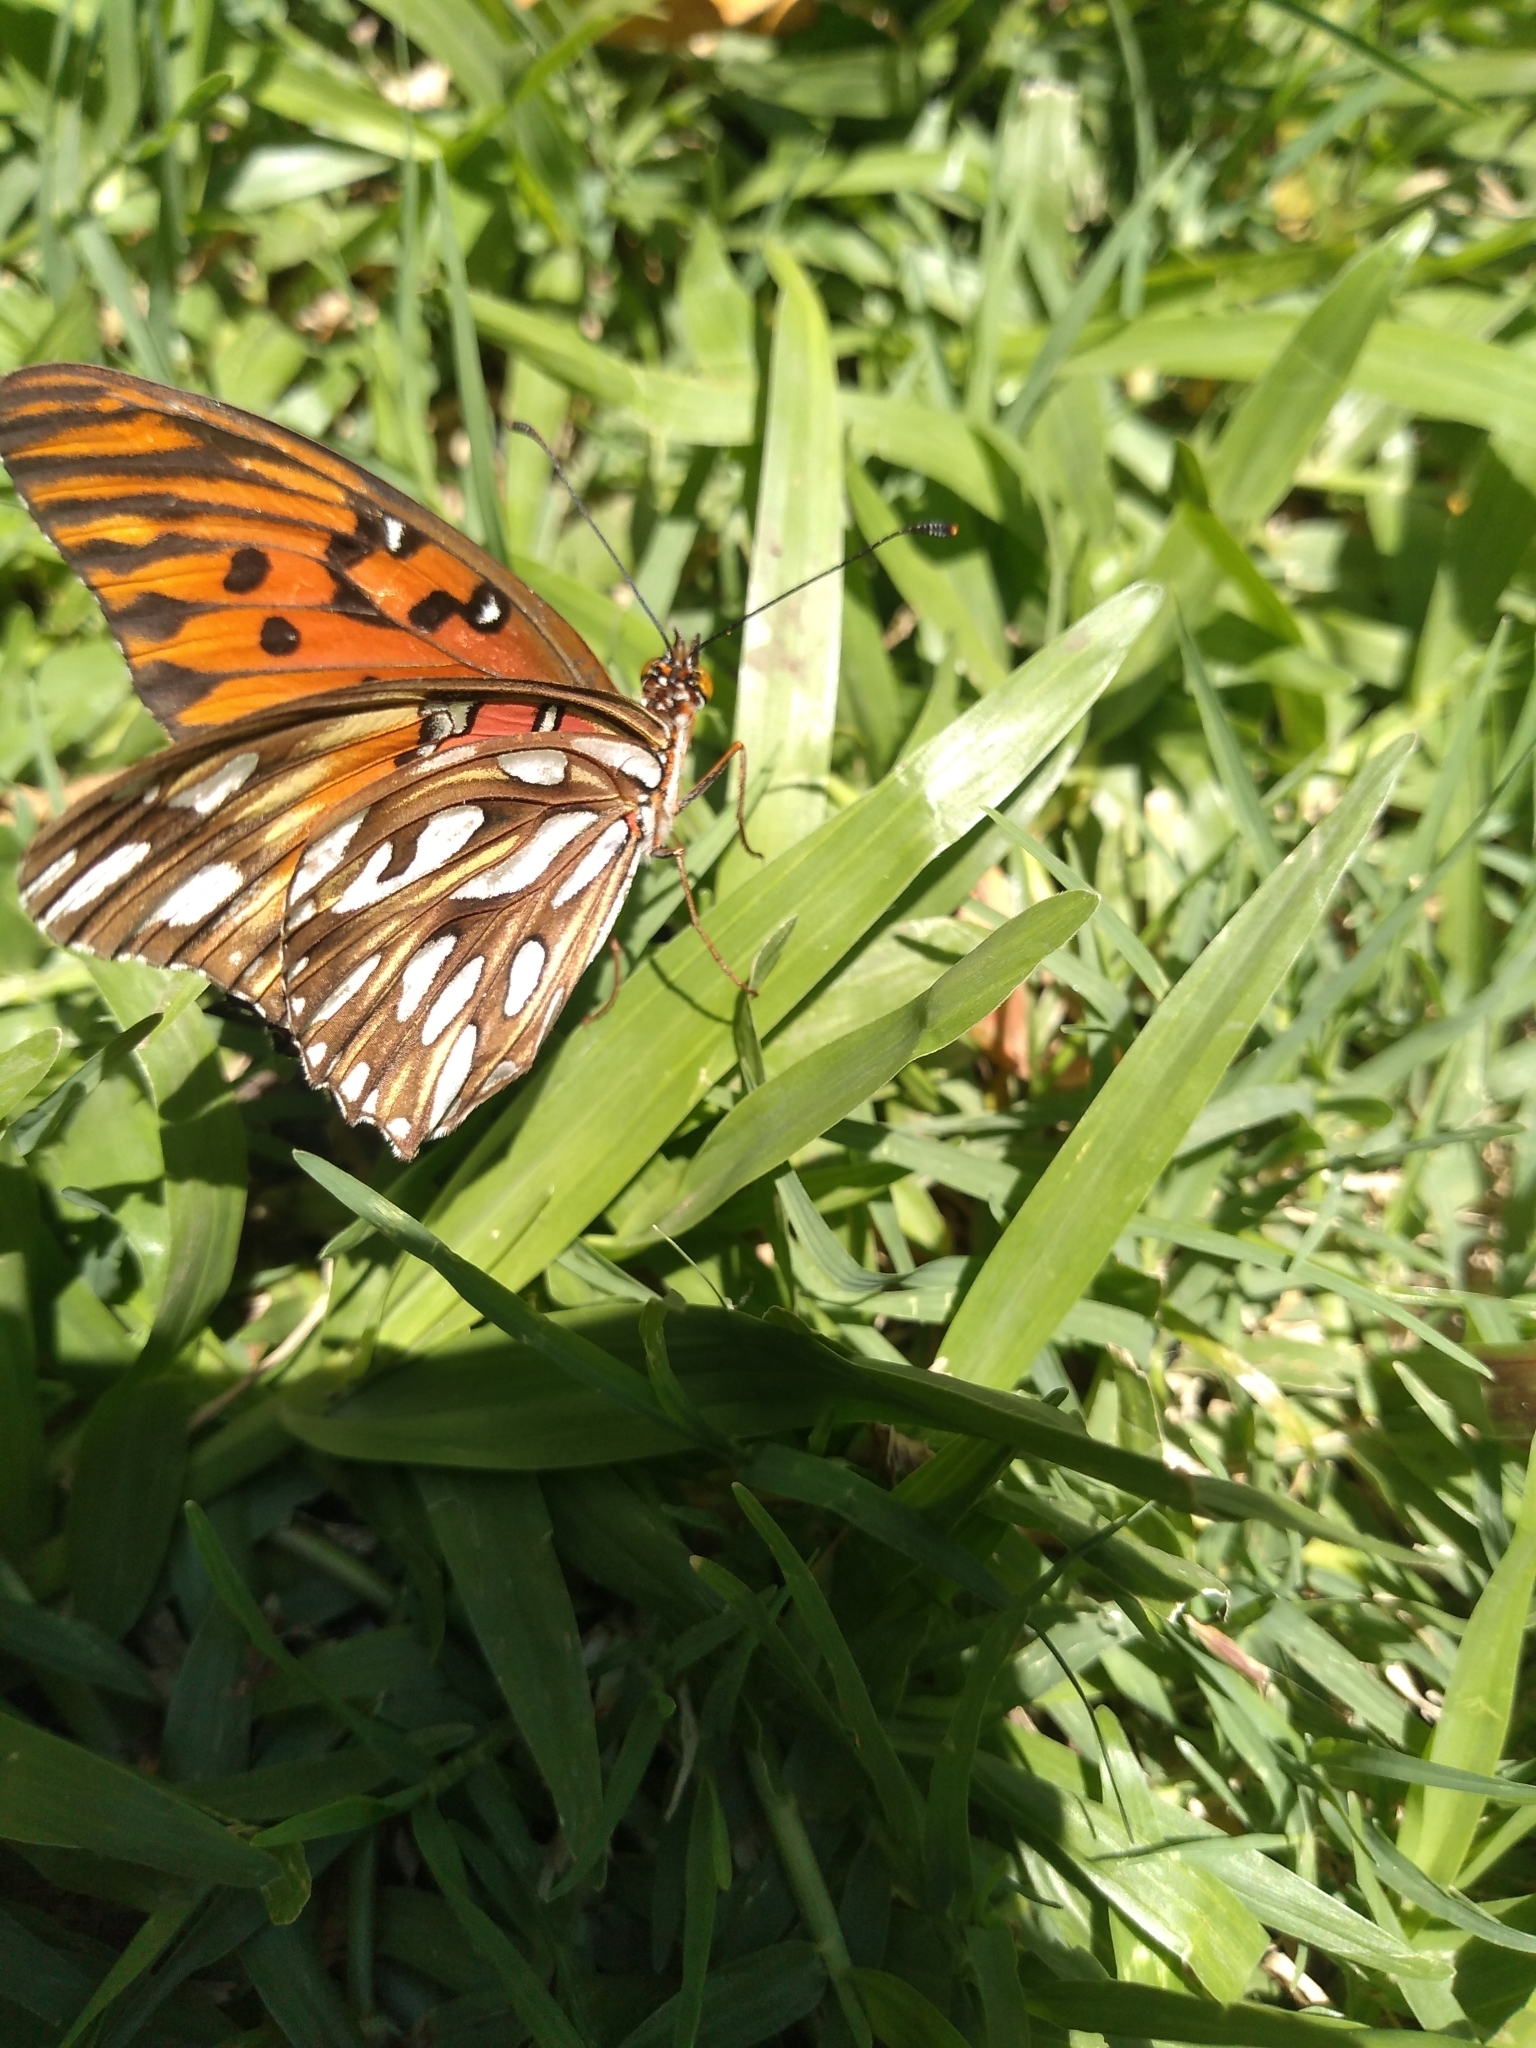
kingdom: Animalia
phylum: Arthropoda
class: Insecta
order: Lepidoptera
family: Nymphalidae
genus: Dione
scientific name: Dione vanillae
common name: Gulf fritillary
